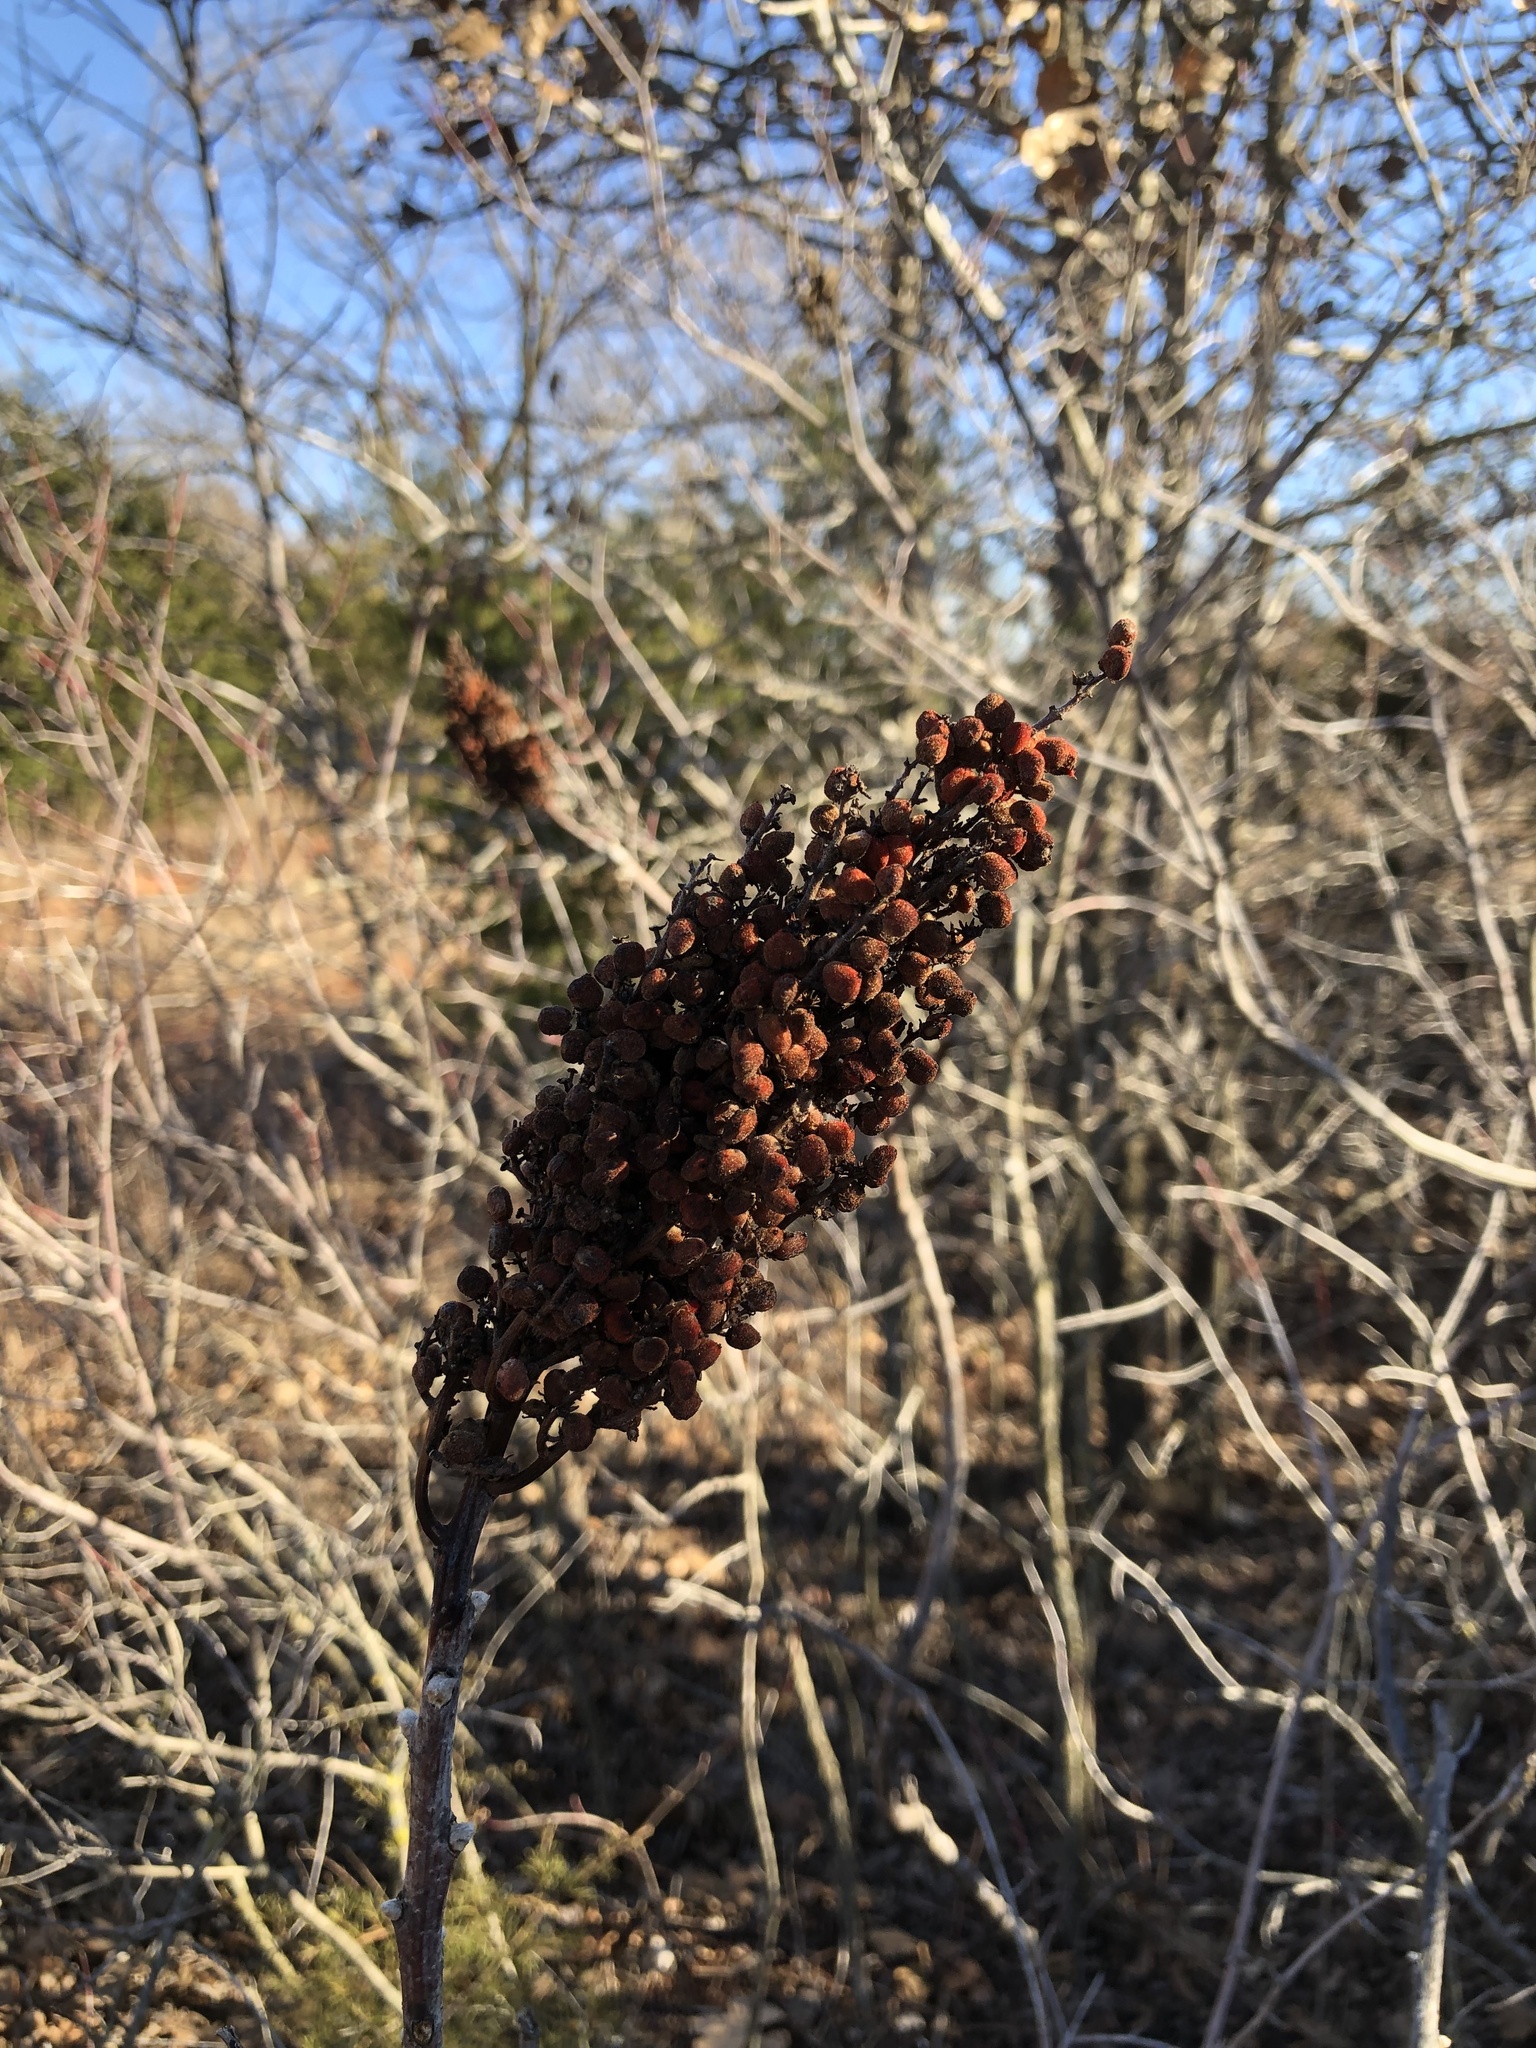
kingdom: Plantae
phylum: Tracheophyta
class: Magnoliopsida
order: Sapindales
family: Anacardiaceae
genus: Rhus
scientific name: Rhus glabra
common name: Scarlet sumac
